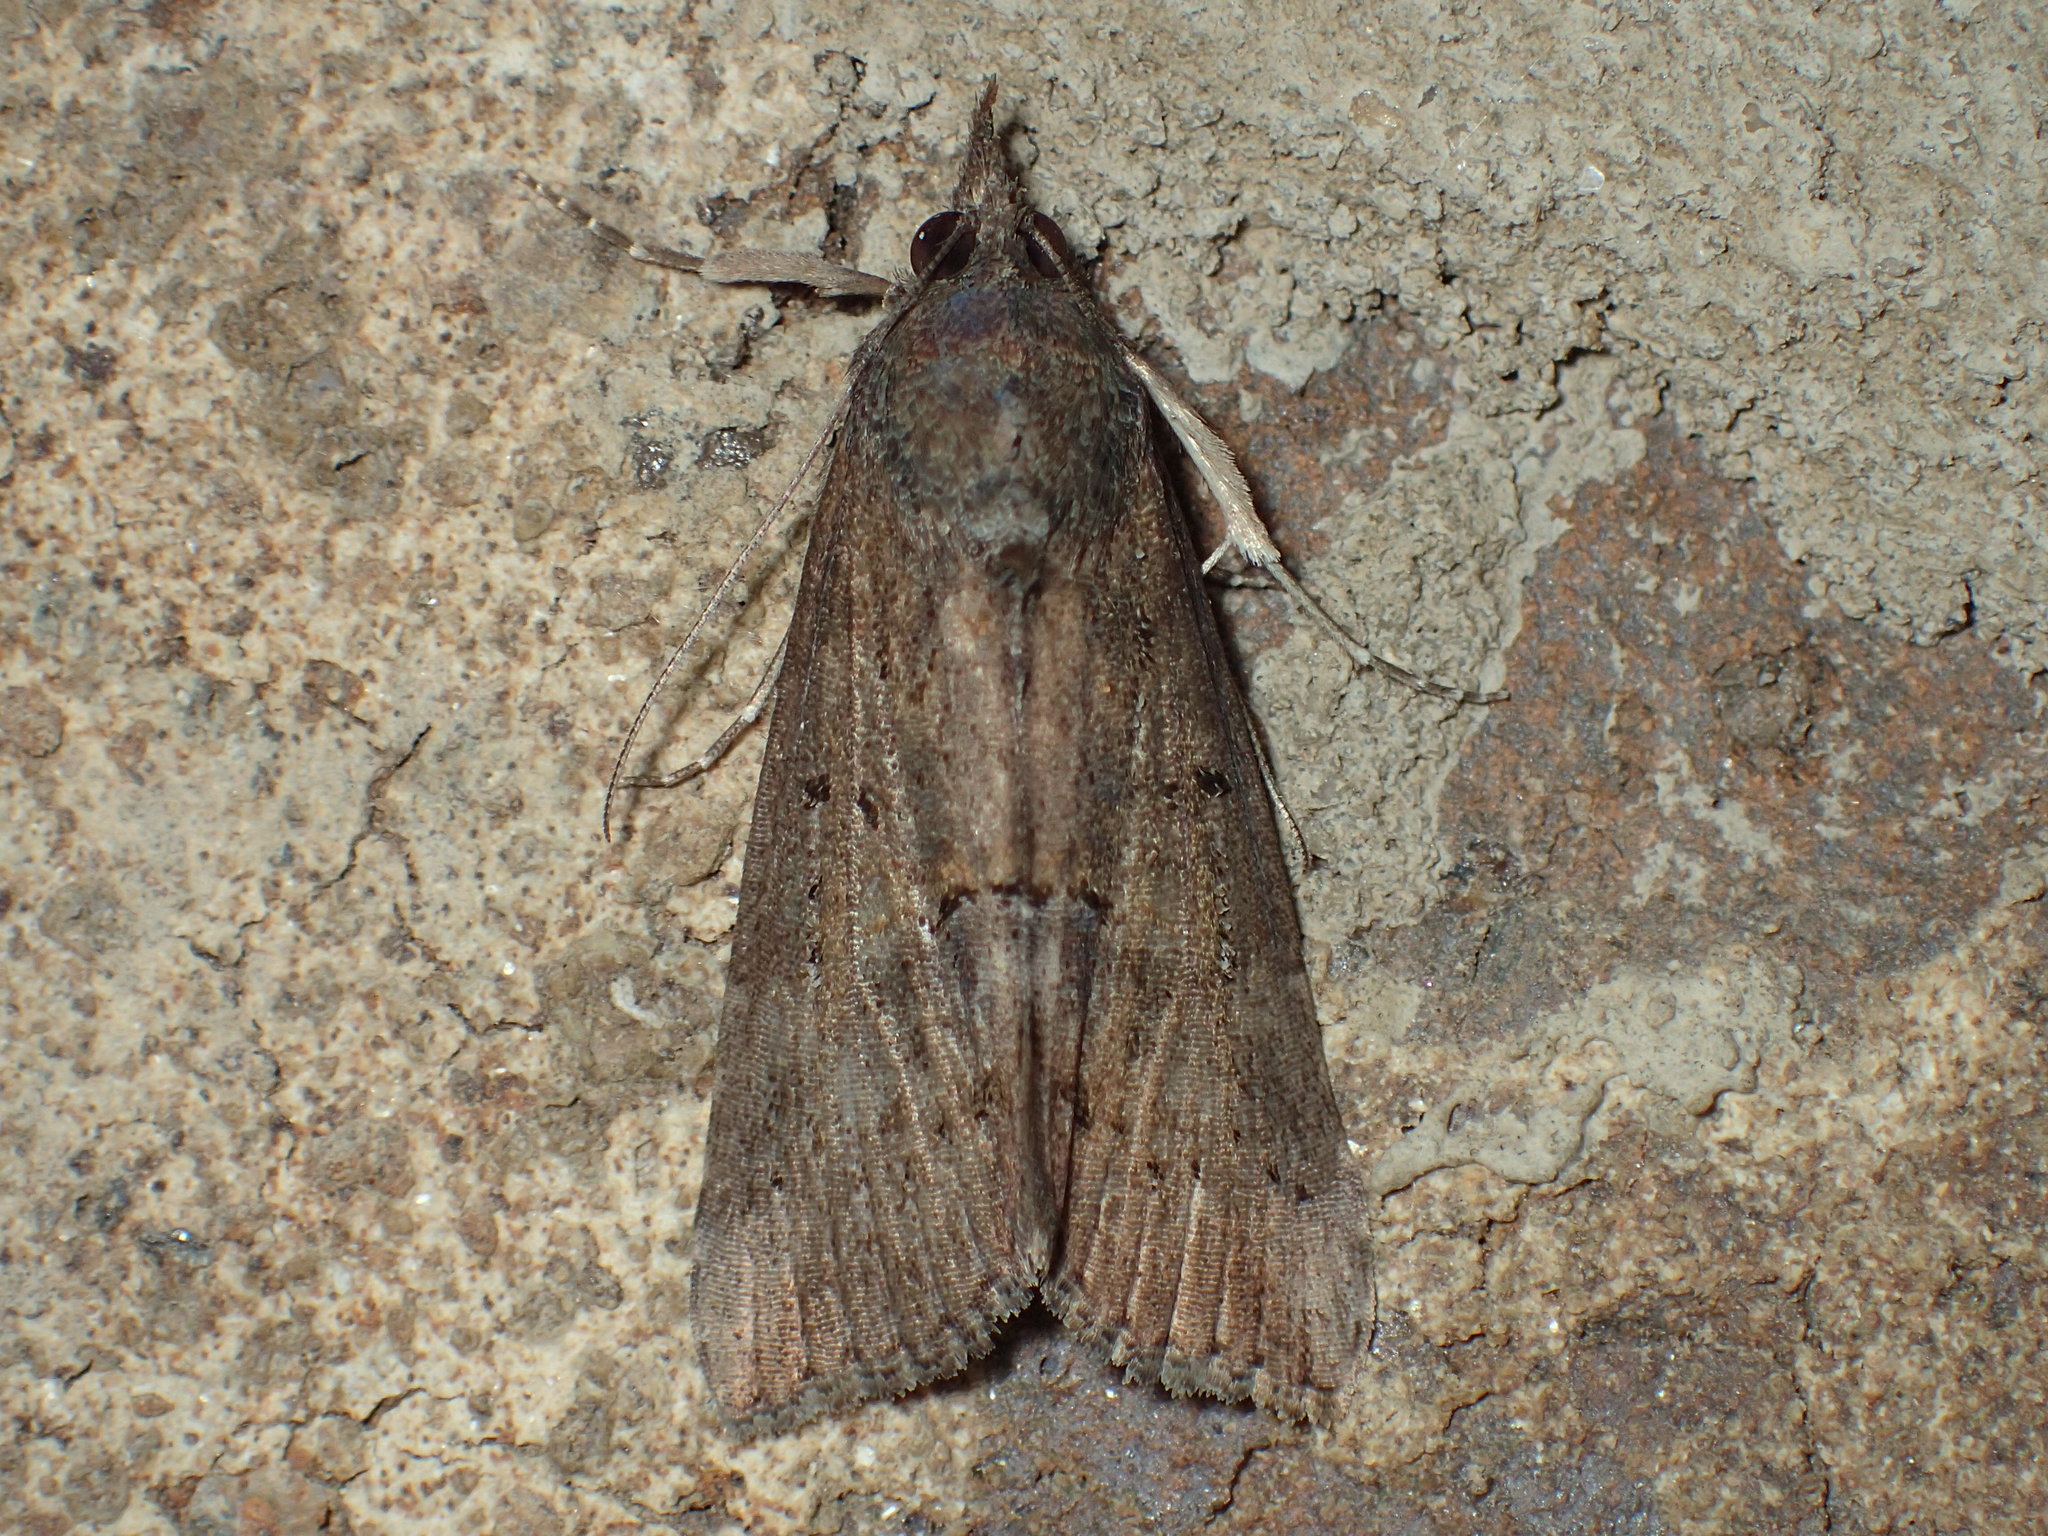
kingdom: Animalia
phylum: Arthropoda
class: Insecta
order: Lepidoptera
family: Erebidae
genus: Hypena
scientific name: Hypena scabra
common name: Green cloverworm
